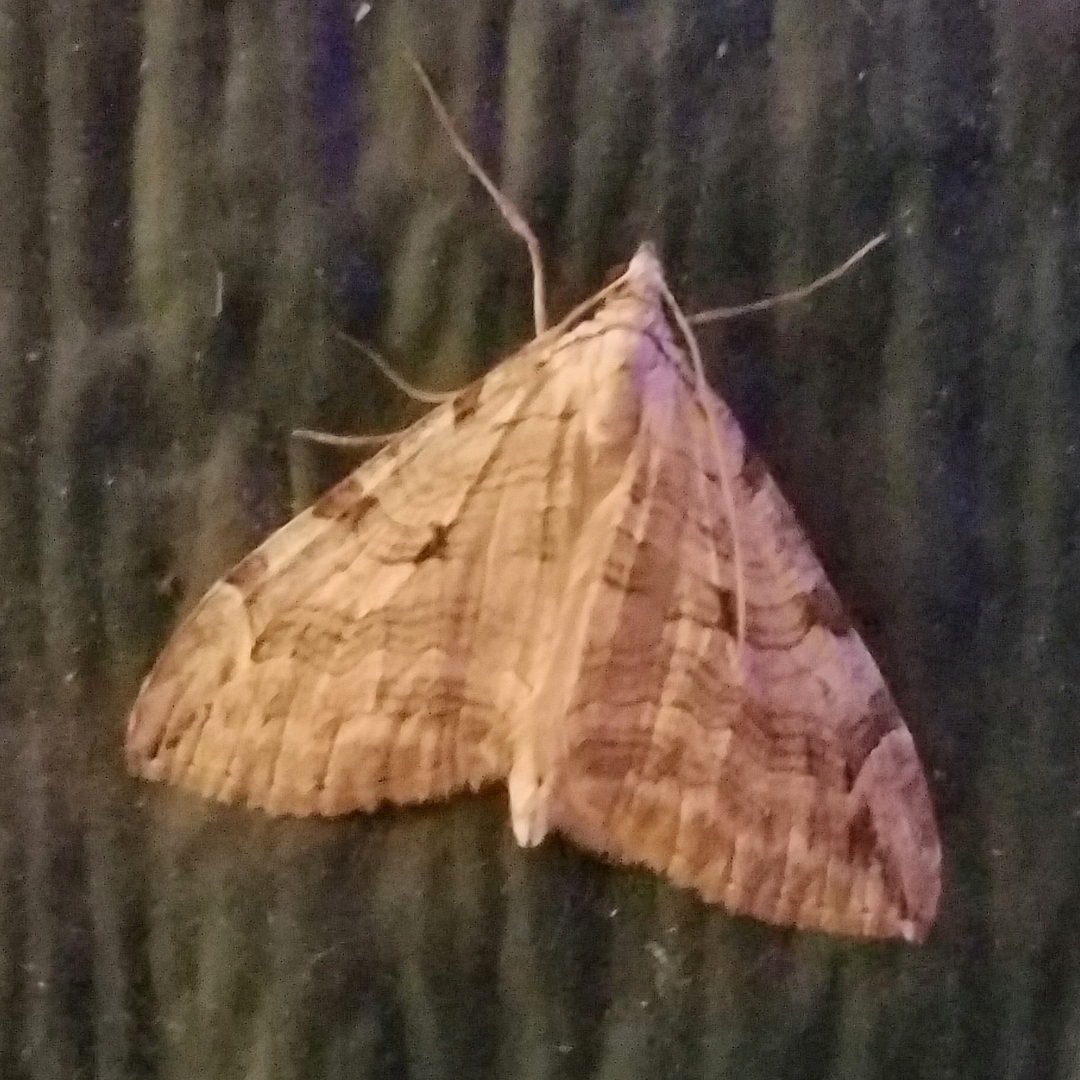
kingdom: Animalia
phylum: Arthropoda
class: Insecta
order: Lepidoptera
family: Geometridae
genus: Aplocera
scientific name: Aplocera plagiata
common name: Treble-bar
